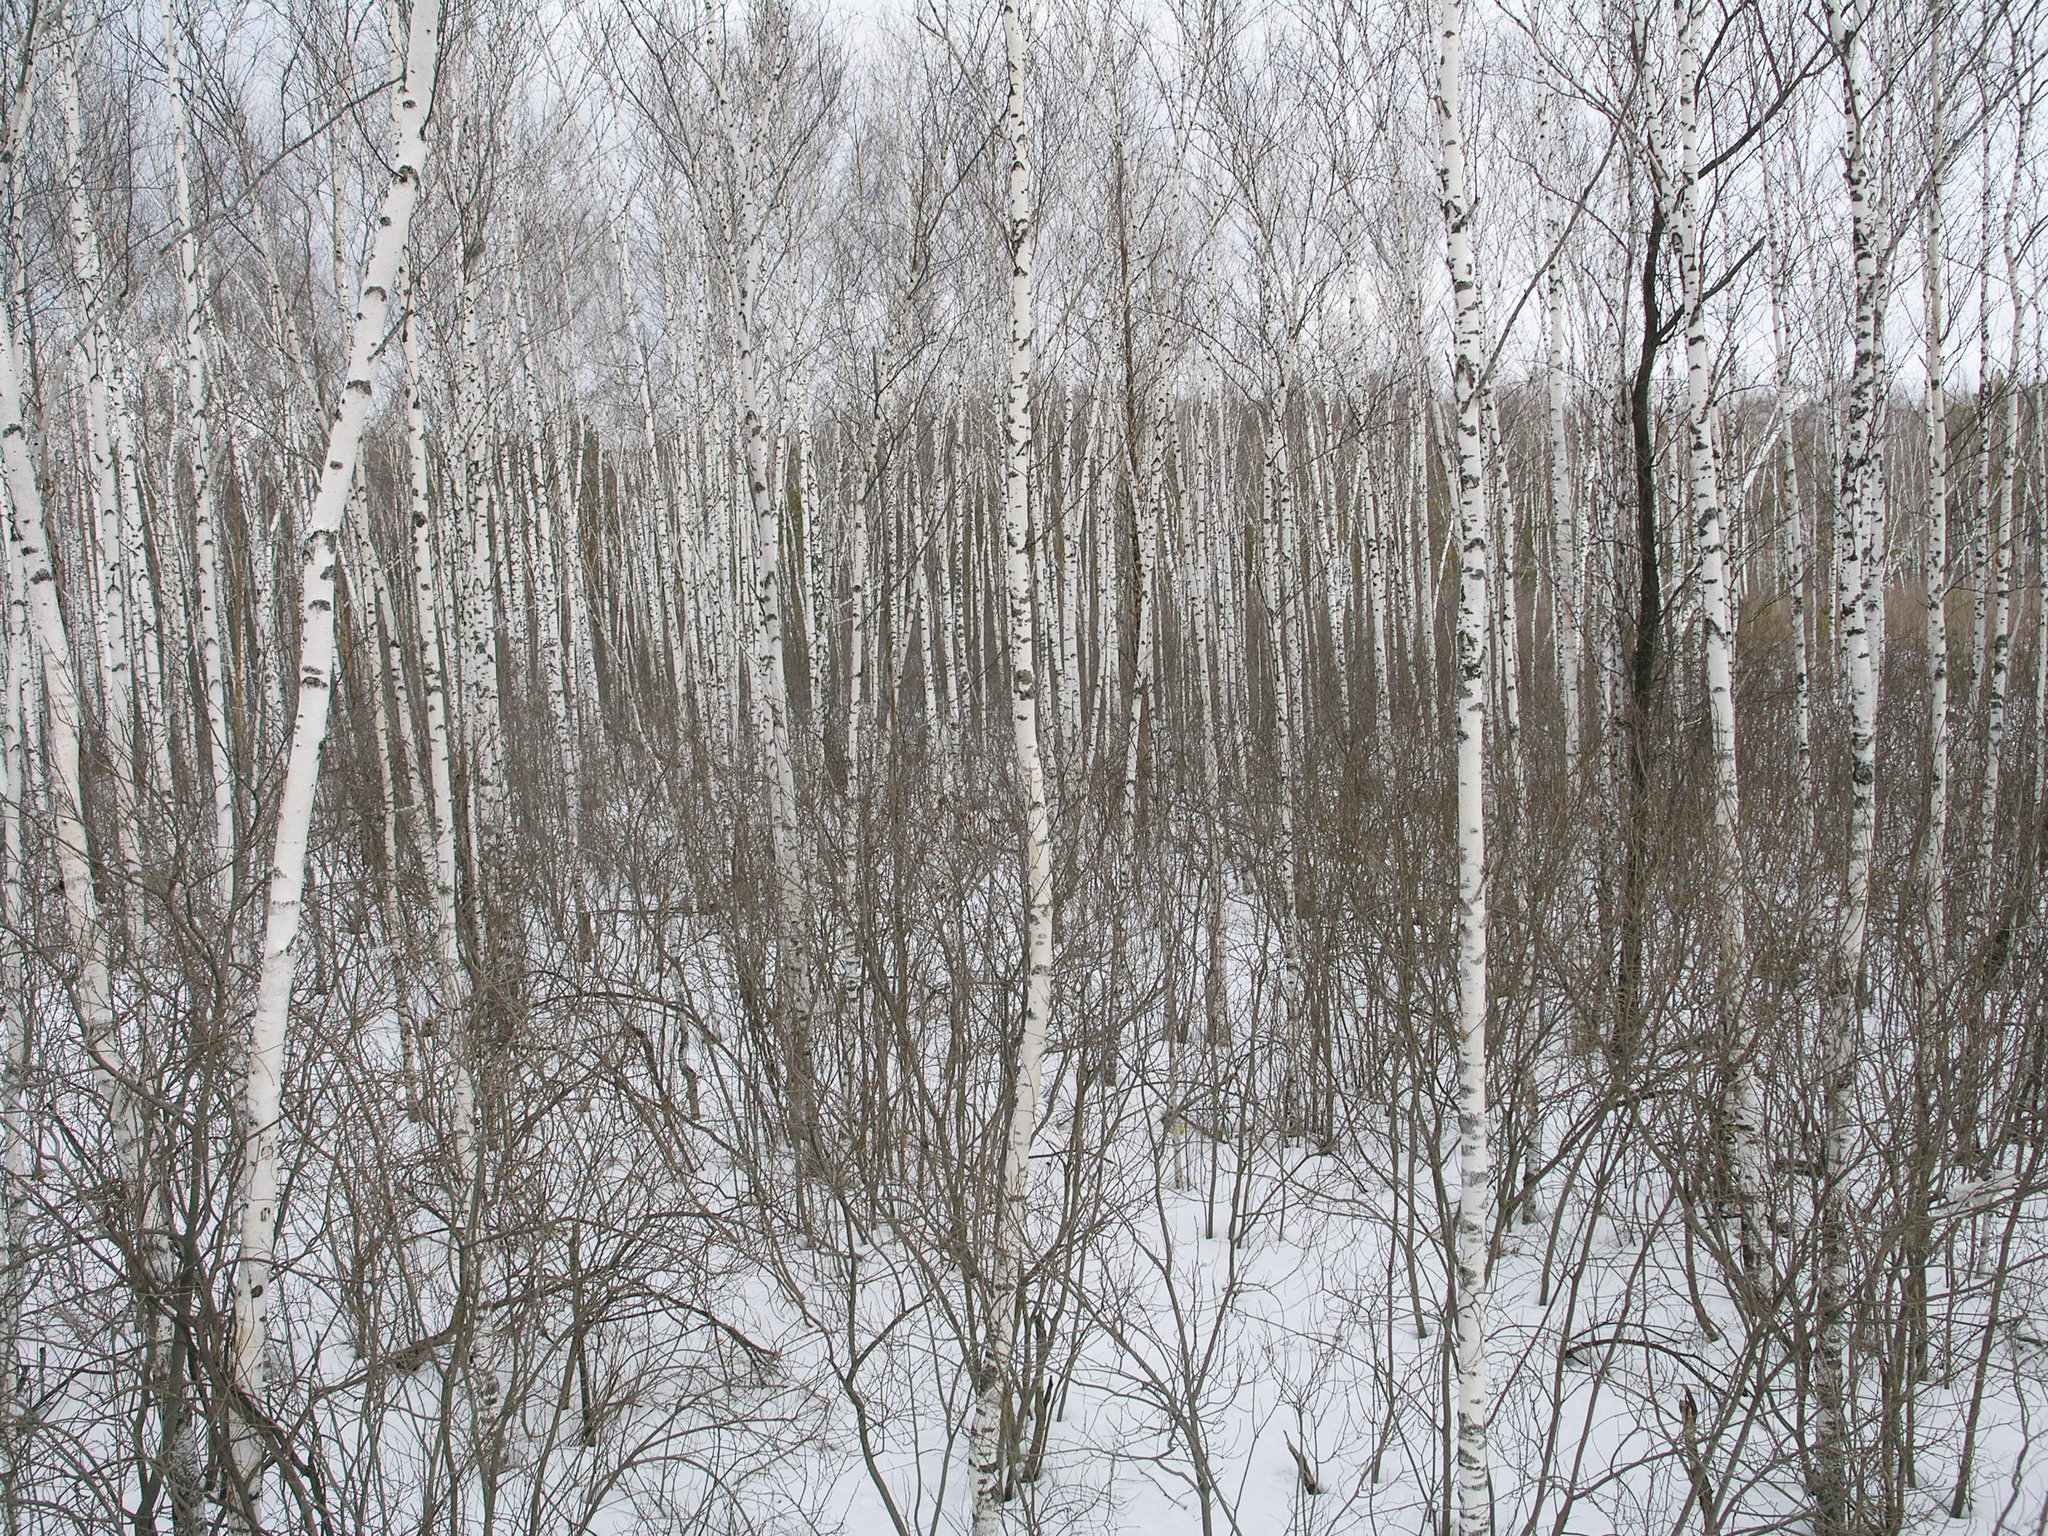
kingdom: Plantae
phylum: Tracheophyta
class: Magnoliopsida
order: Fagales
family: Betulaceae
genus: Betula
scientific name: Betula pubescens
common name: Downy birch
